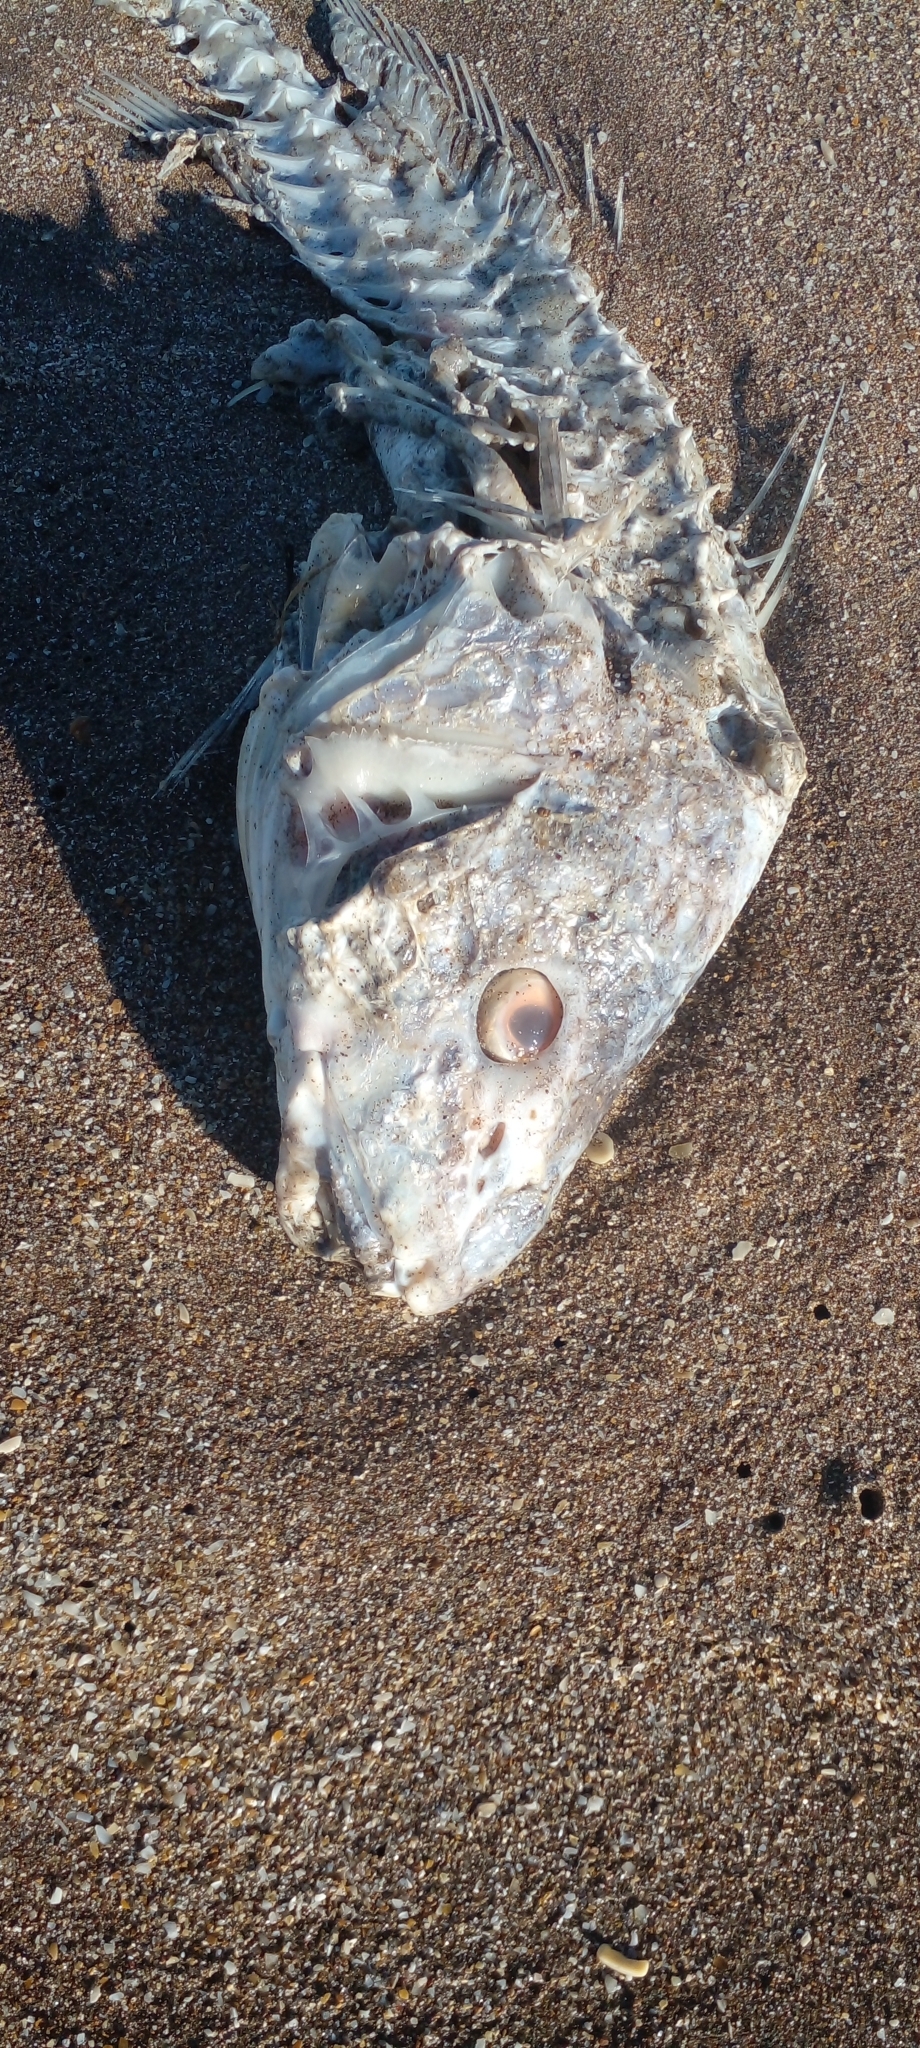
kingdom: Animalia
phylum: Chordata
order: Perciformes
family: Sciaenidae
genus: Micropogonias
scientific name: Micropogonias furnieri
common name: Whitemouth croaker
